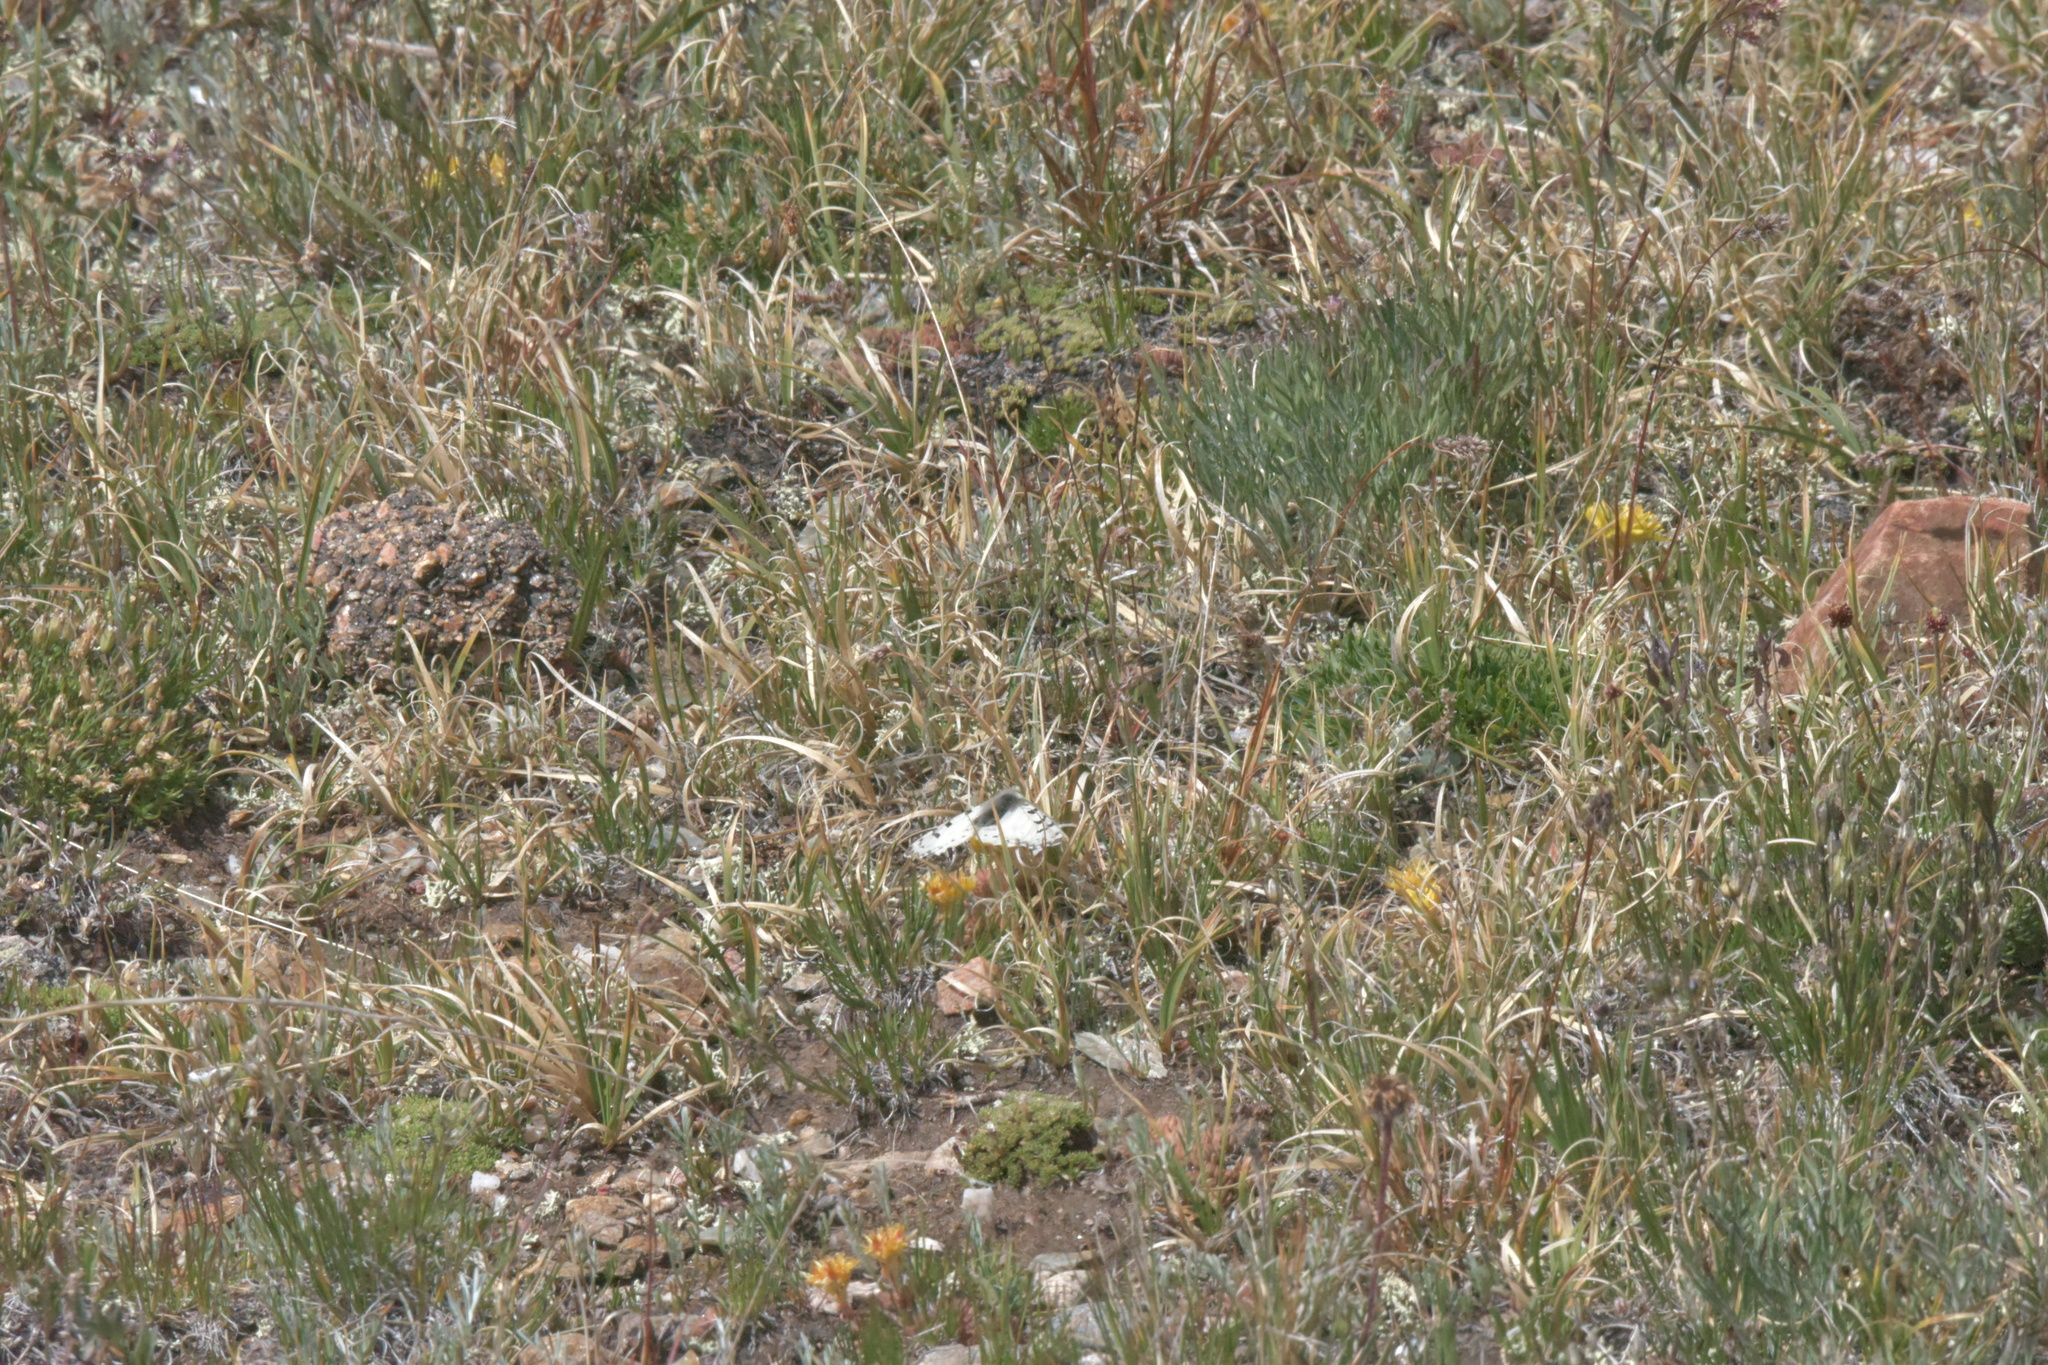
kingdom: Animalia
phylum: Arthropoda
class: Insecta
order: Lepidoptera
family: Papilionidae
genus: Parnassius
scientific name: Parnassius smintheus
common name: Mountain parnassian
